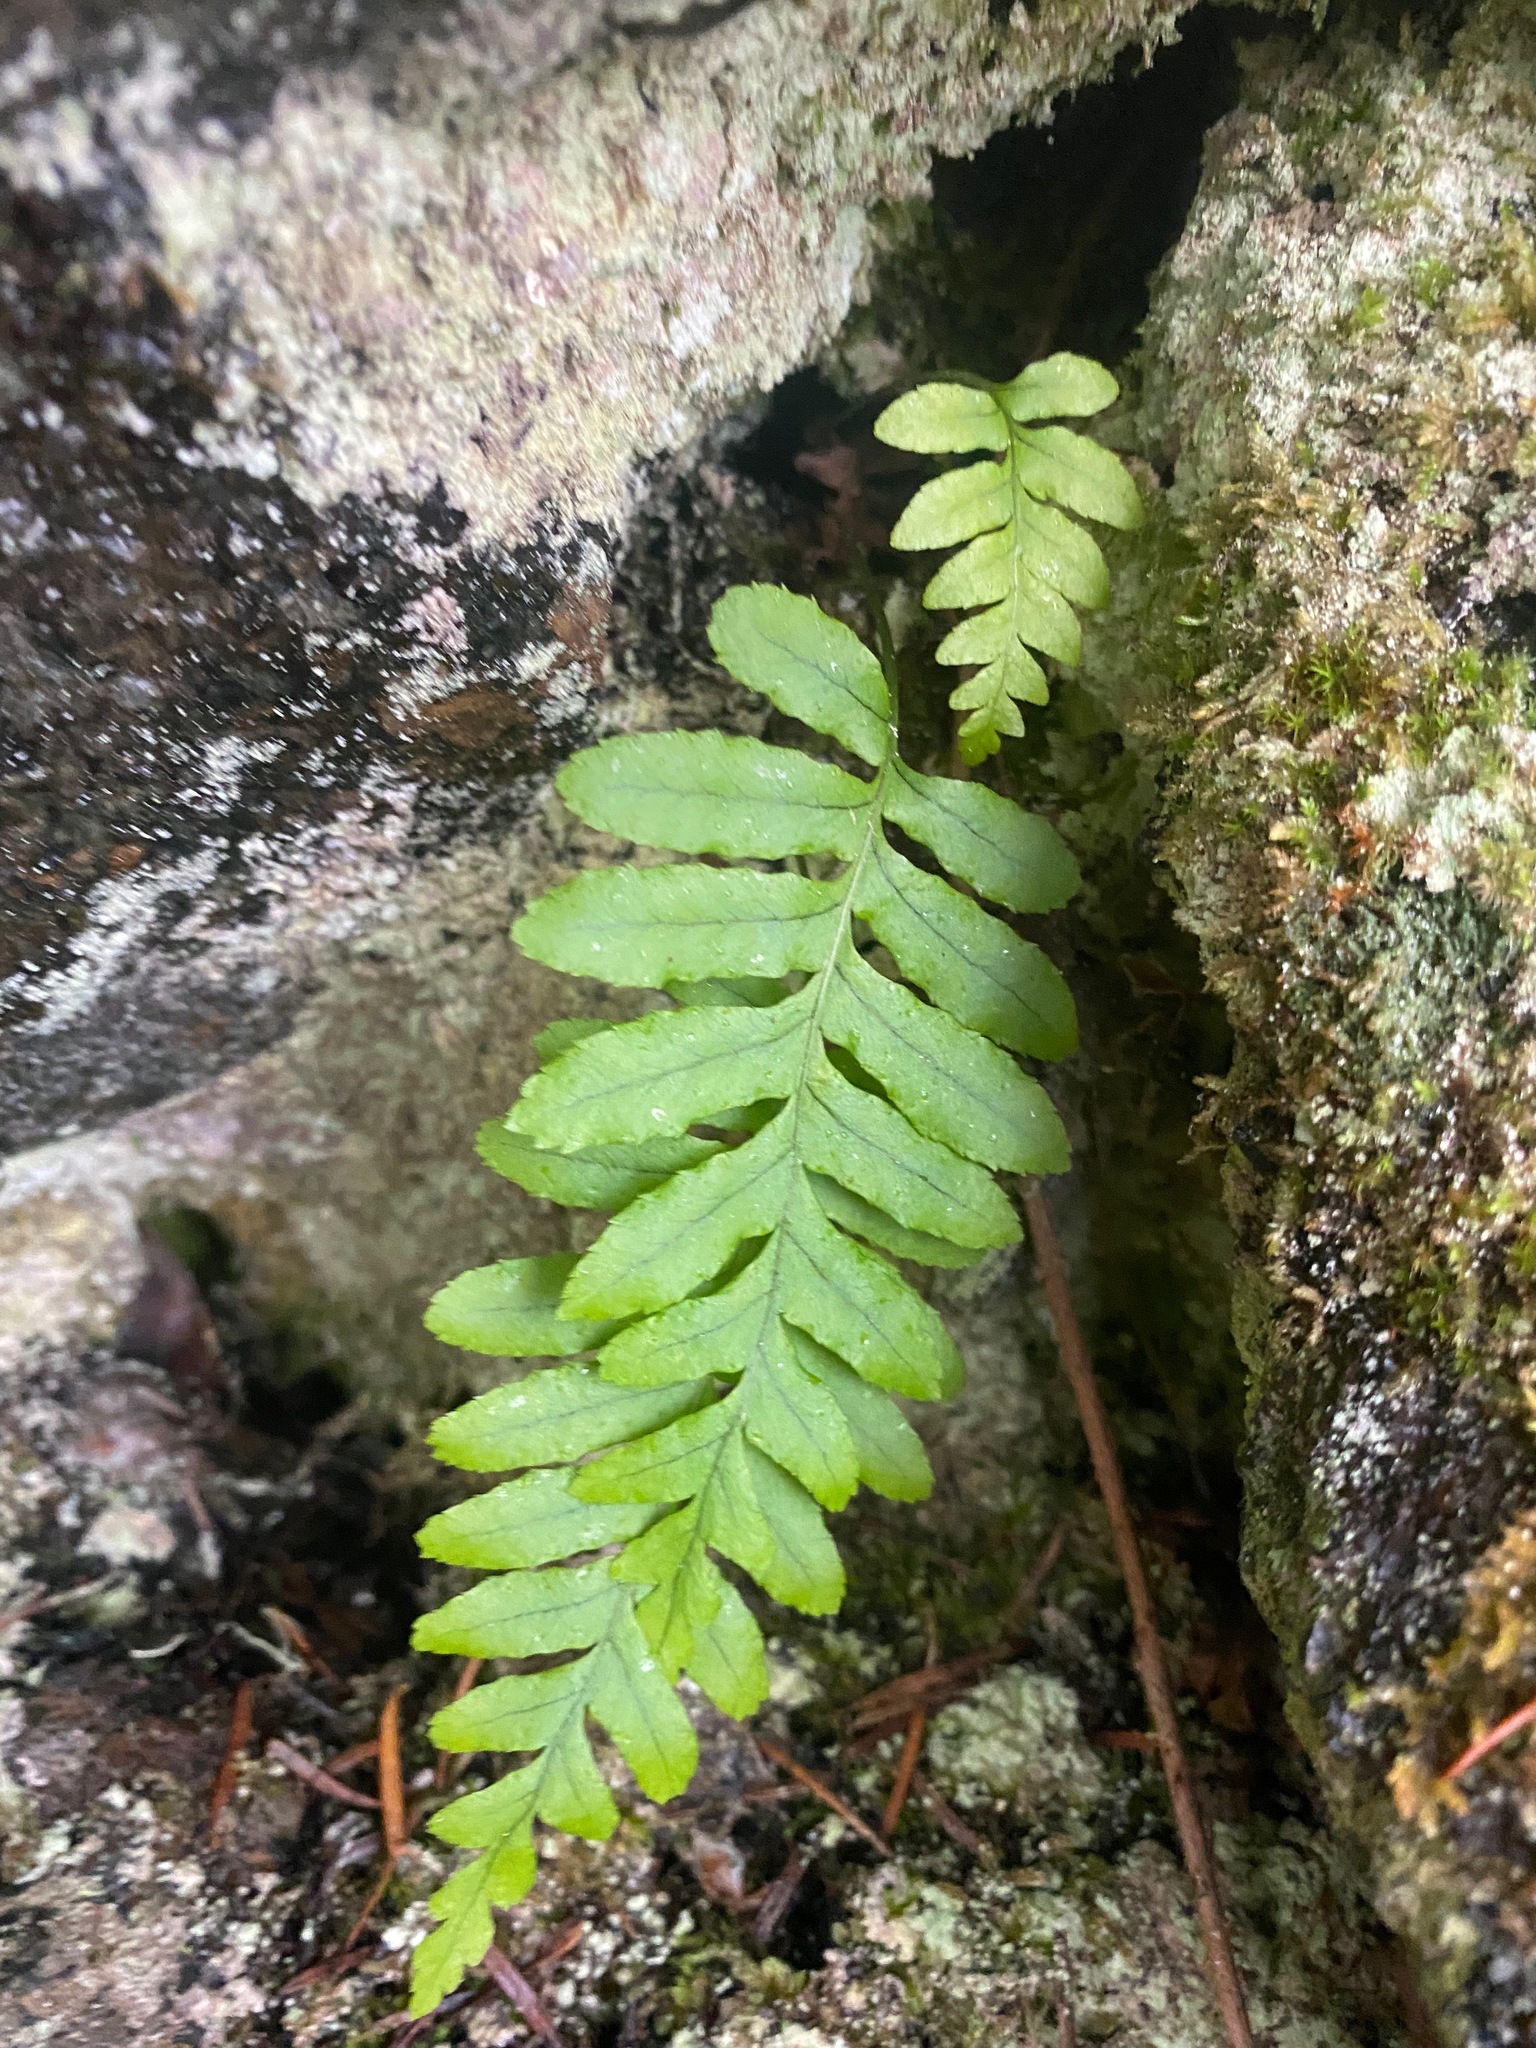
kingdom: Plantae
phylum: Tracheophyta
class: Polypodiopsida
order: Polypodiales
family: Polypodiaceae
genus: Polypodium
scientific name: Polypodium glycyrrhiza
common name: Licorice fern
